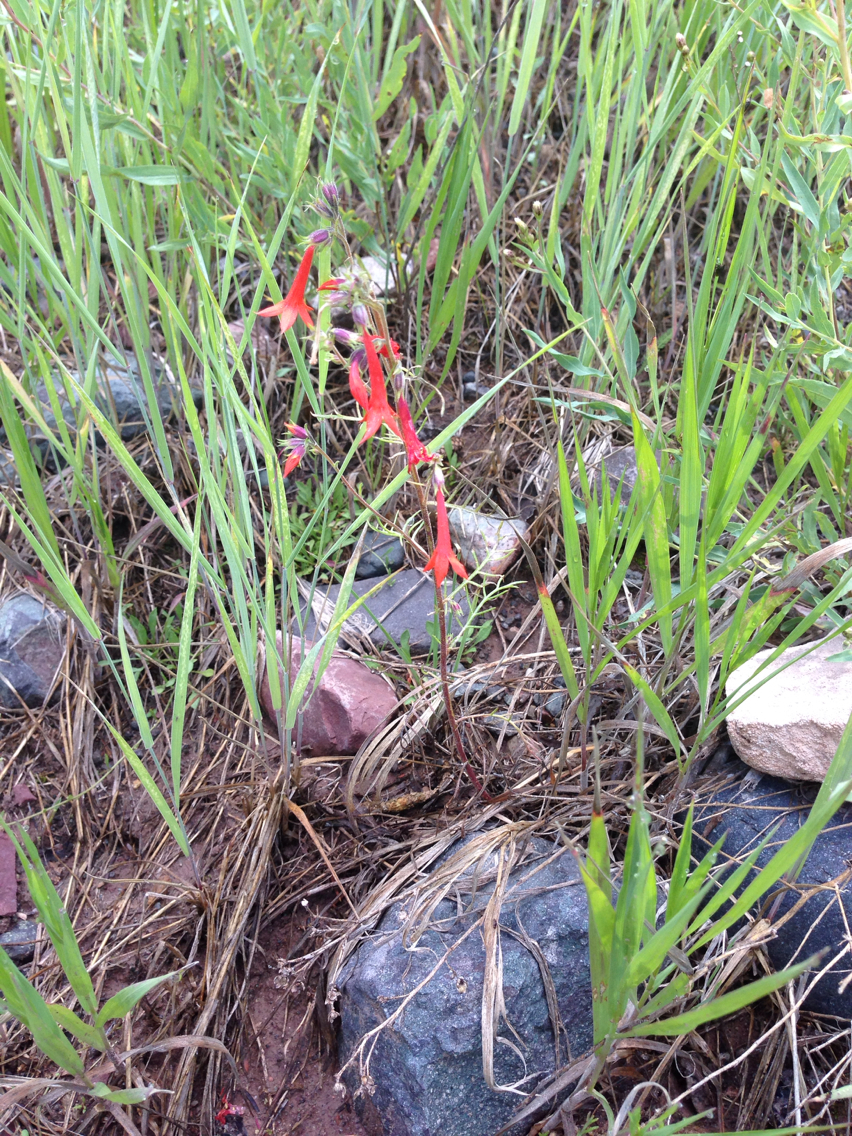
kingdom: Plantae
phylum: Tracheophyta
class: Magnoliopsida
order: Ericales
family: Polemoniaceae
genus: Ipomopsis
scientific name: Ipomopsis aggregata
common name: Scarlet gilia
